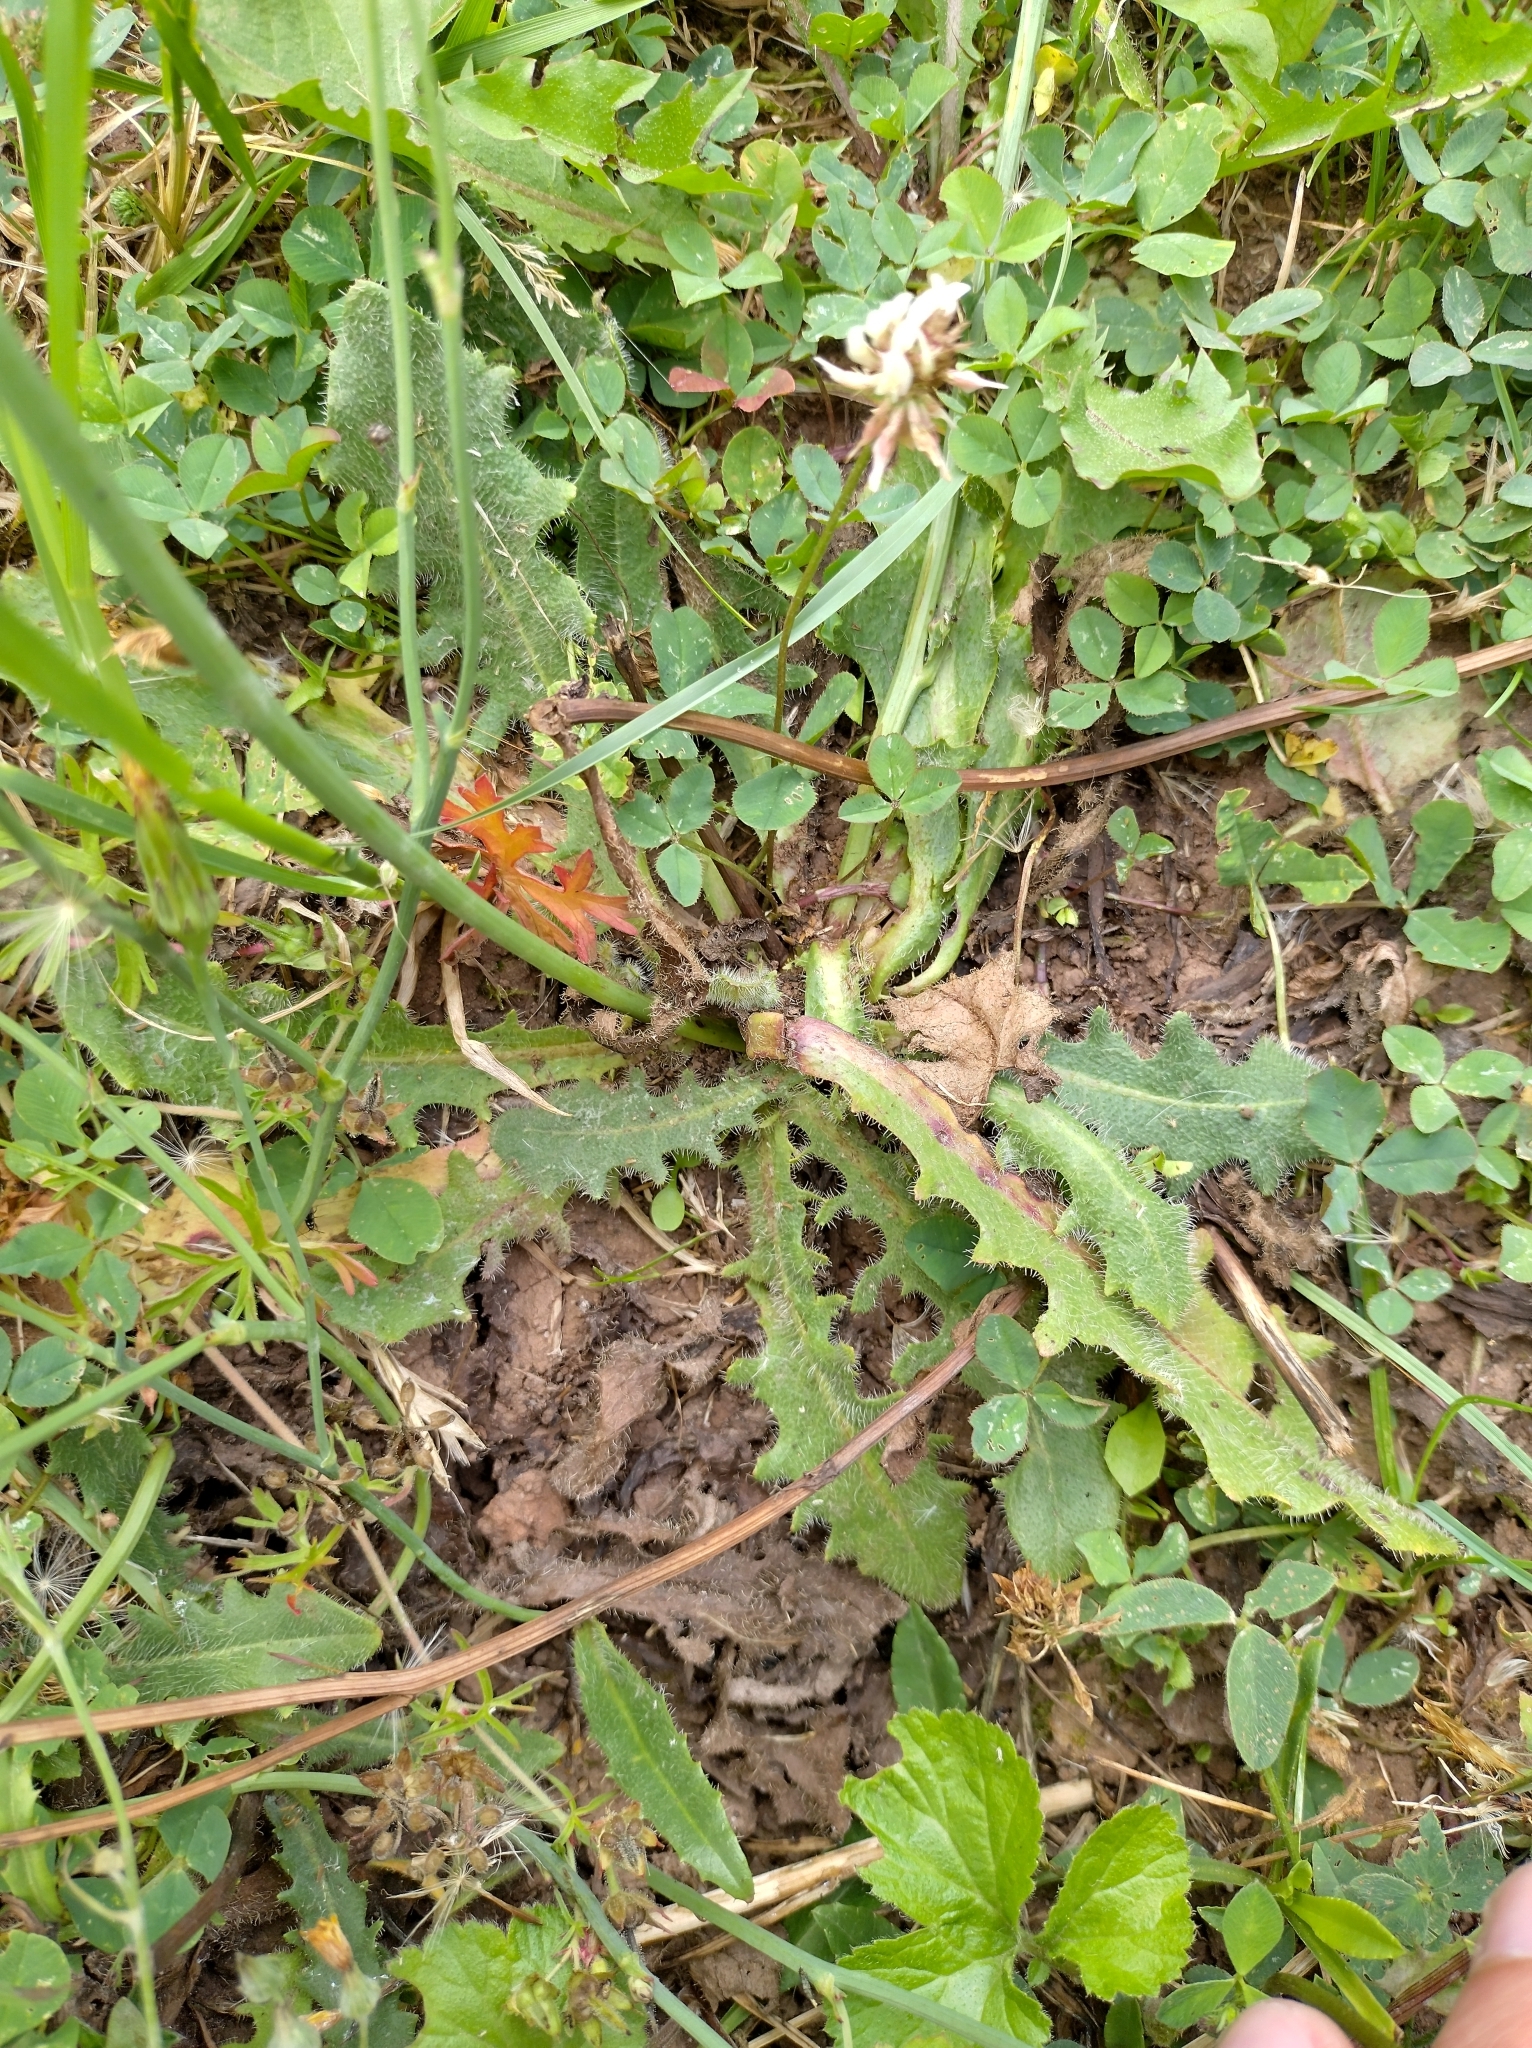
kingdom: Plantae
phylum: Tracheophyta
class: Magnoliopsida
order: Asterales
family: Asteraceae
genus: Hypochaeris
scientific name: Hypochaeris radicata
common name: Flatweed
